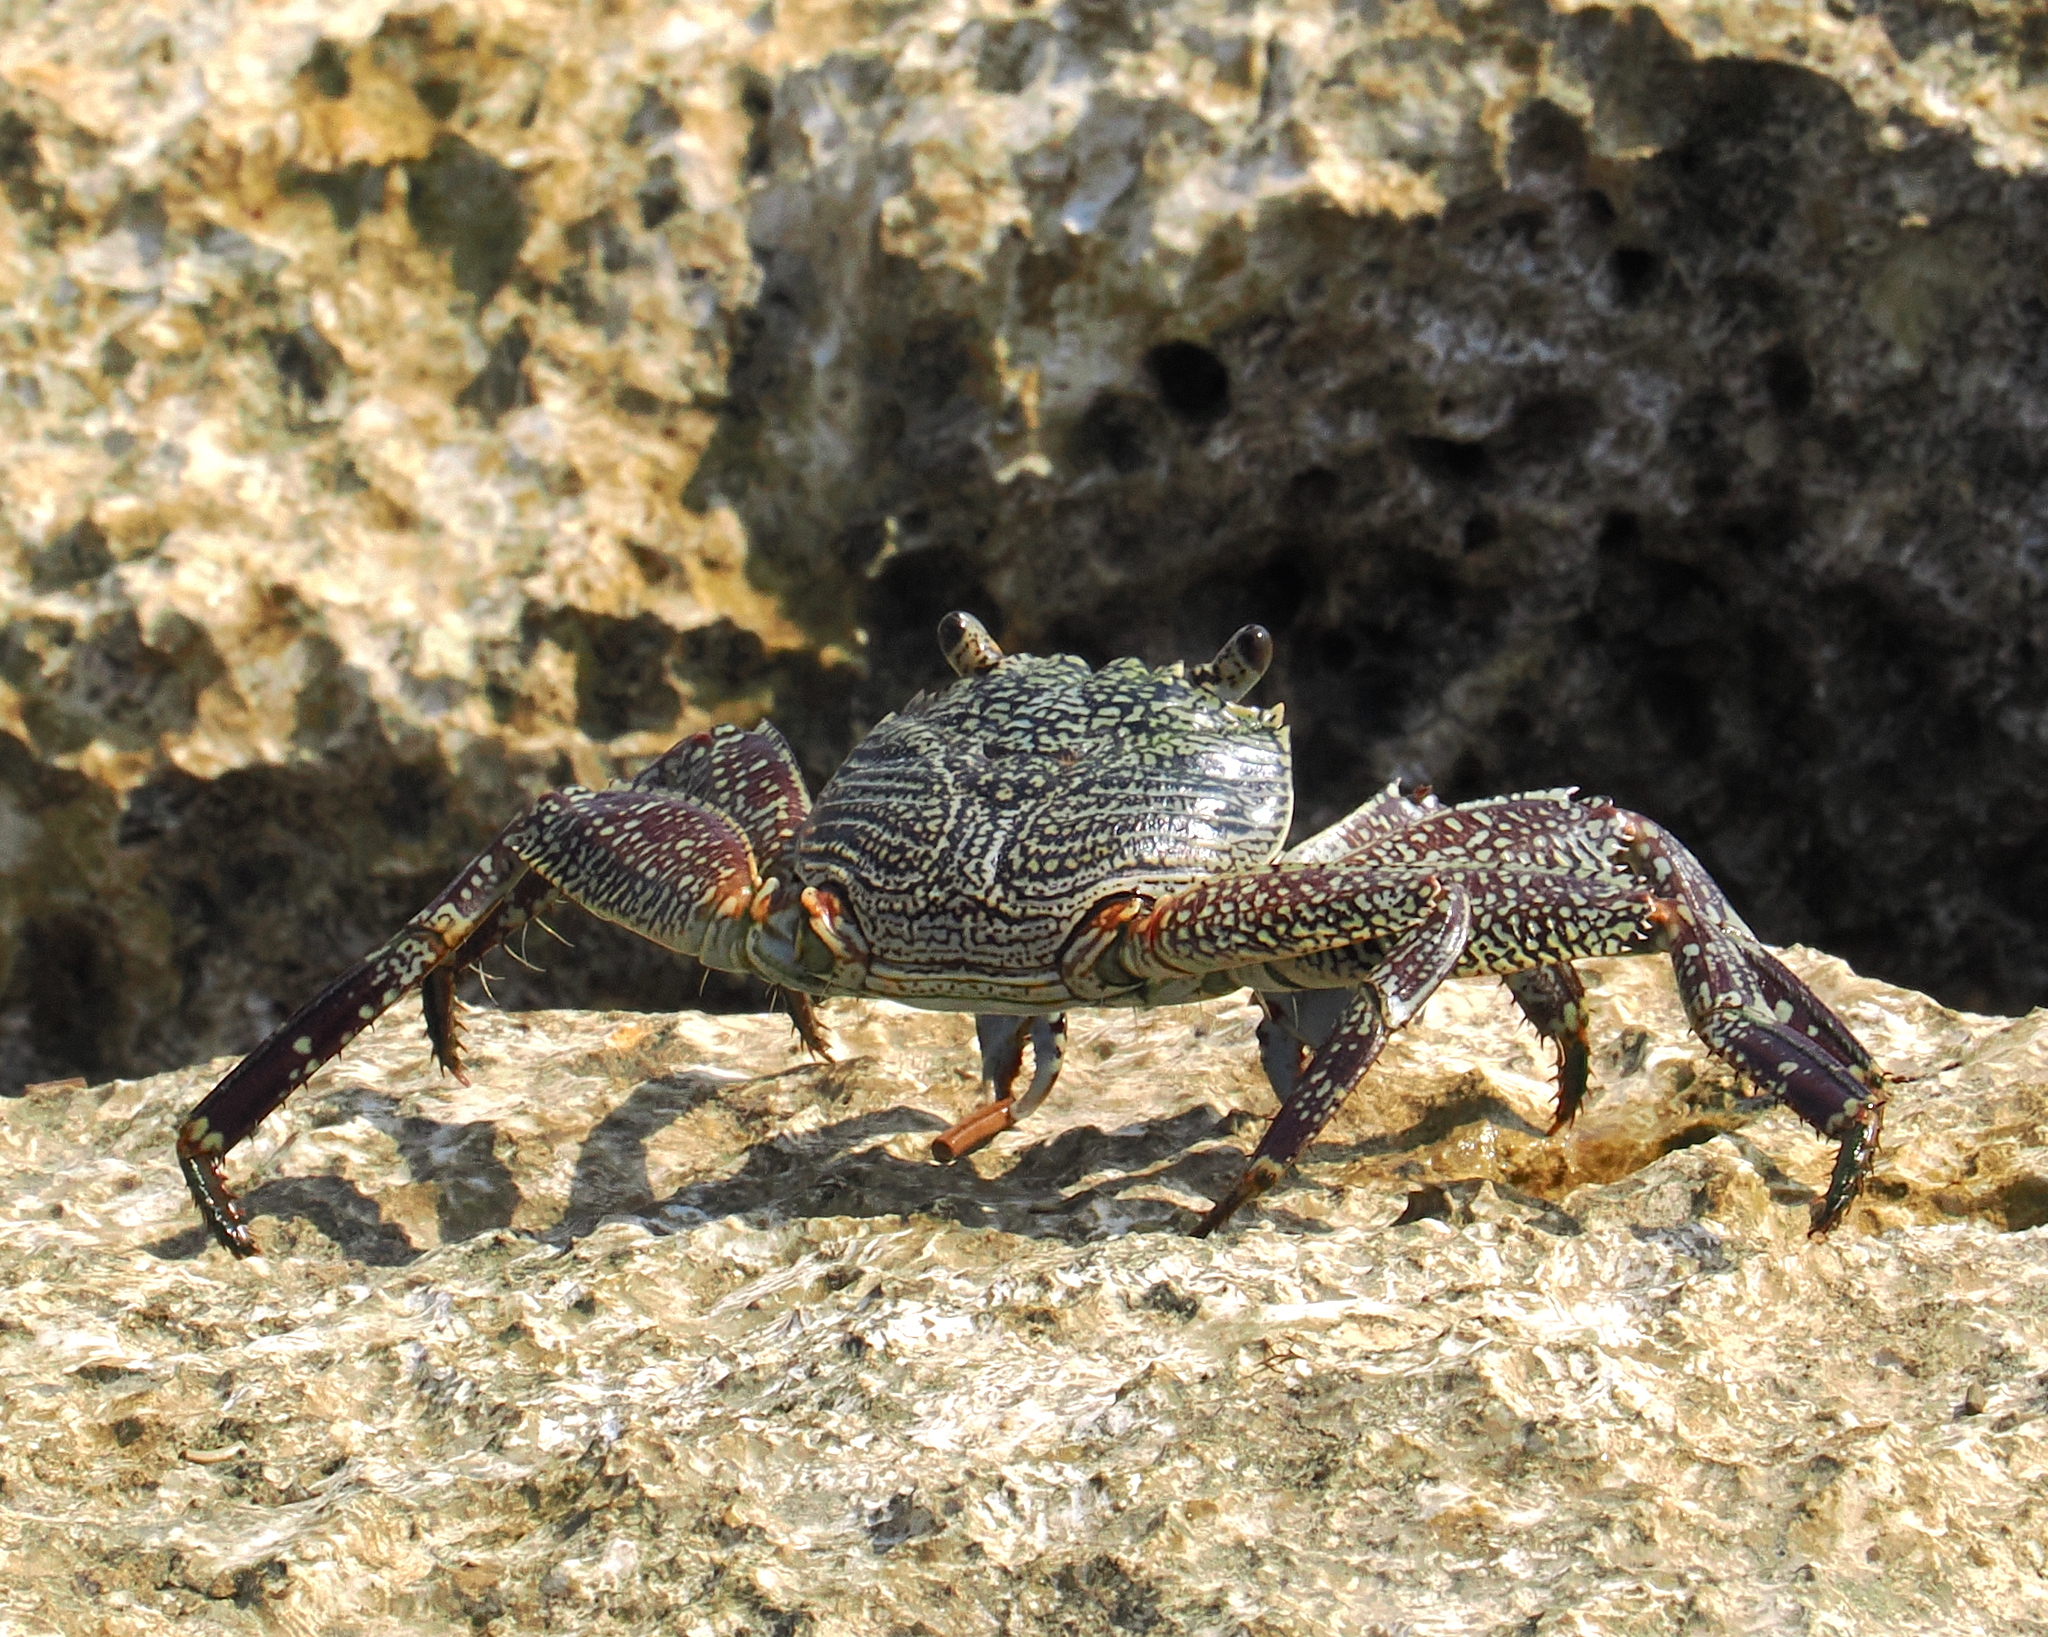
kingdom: Animalia
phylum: Arthropoda
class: Malacostraca
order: Decapoda
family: Grapsidae
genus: Grapsus
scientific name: Grapsus albolineatus
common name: Mottled lightfoot crab
